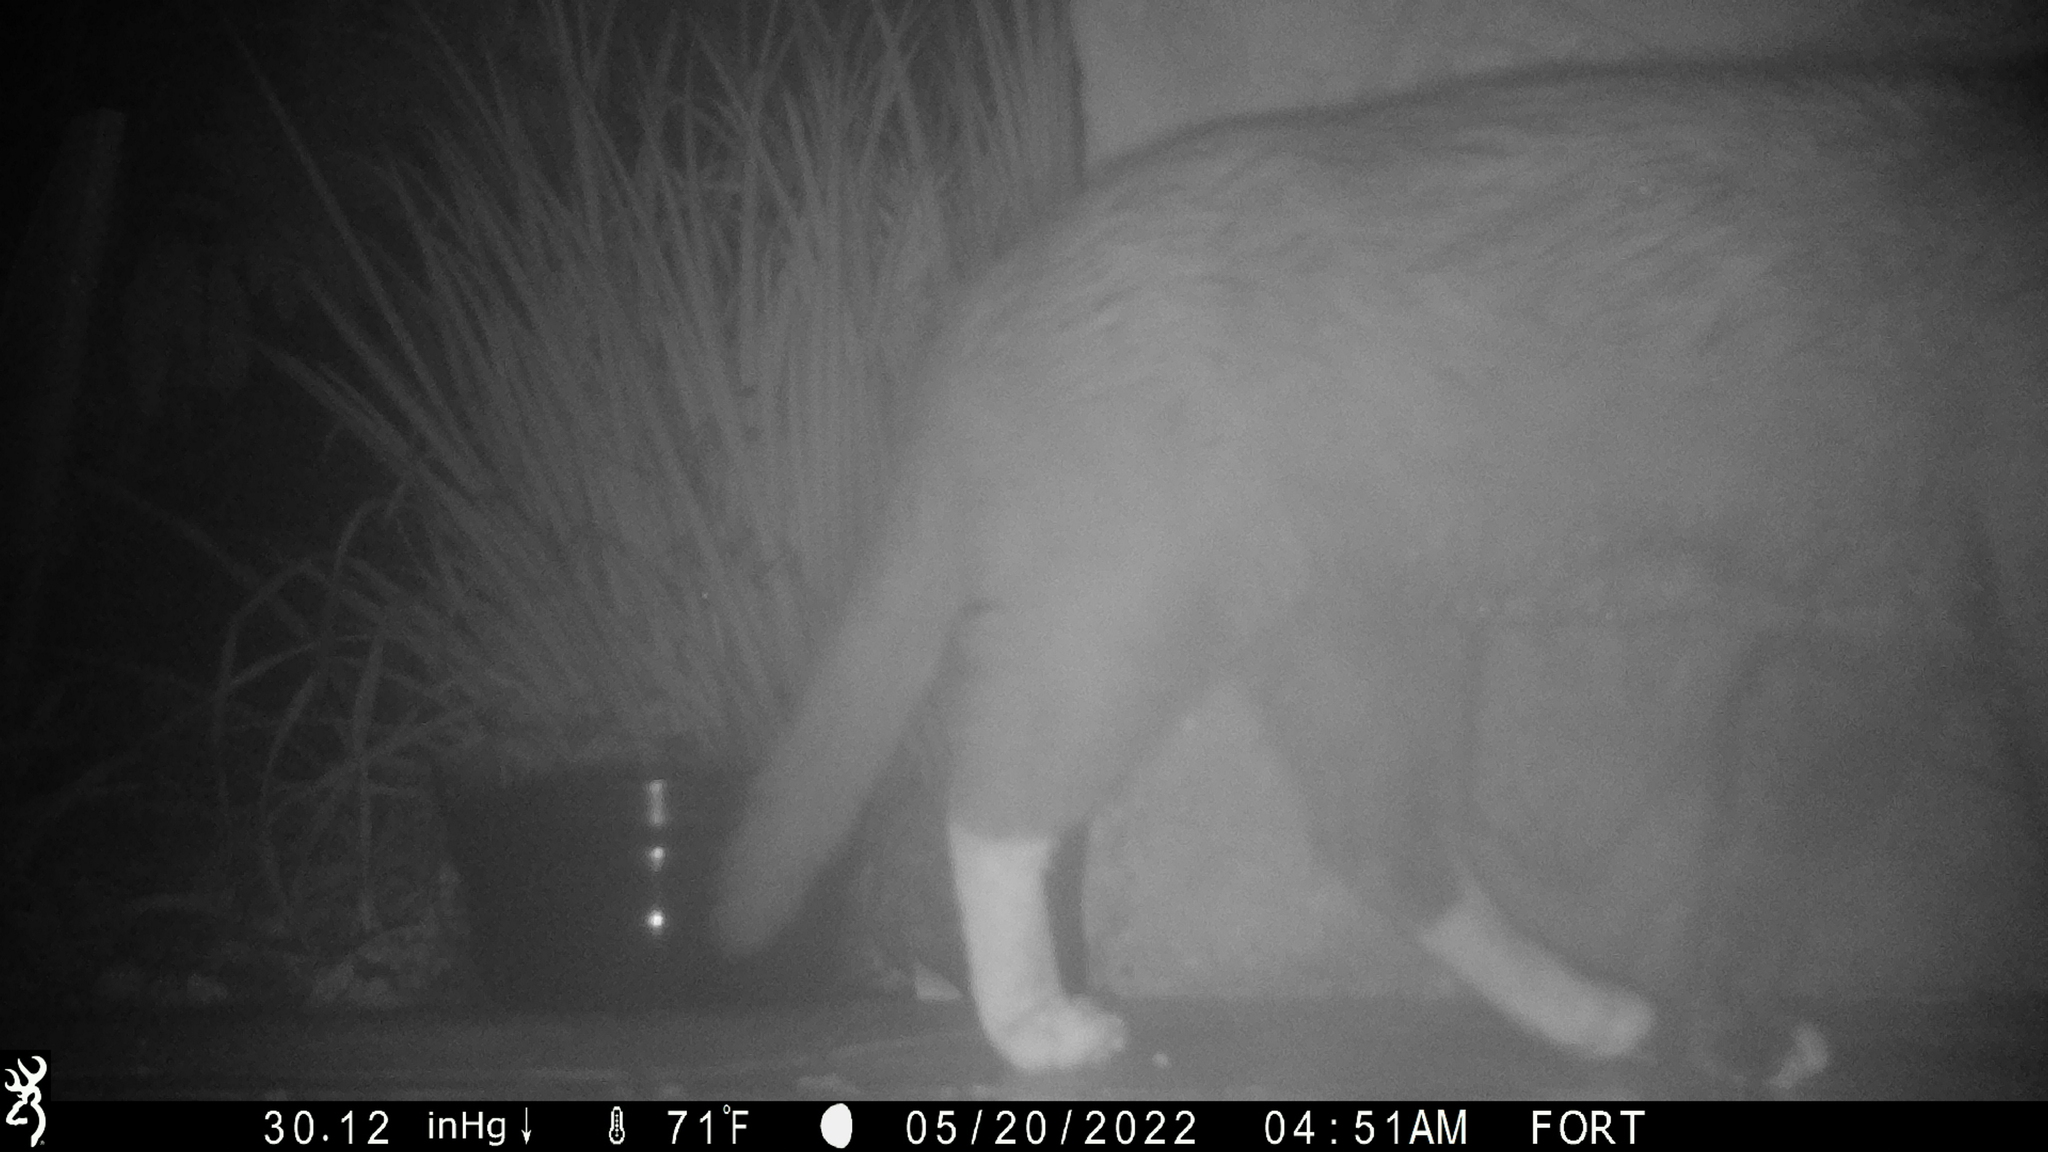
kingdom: Animalia
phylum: Chordata
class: Mammalia
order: Carnivora
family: Felidae
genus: Felis
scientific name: Felis catus
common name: Domestic cat
